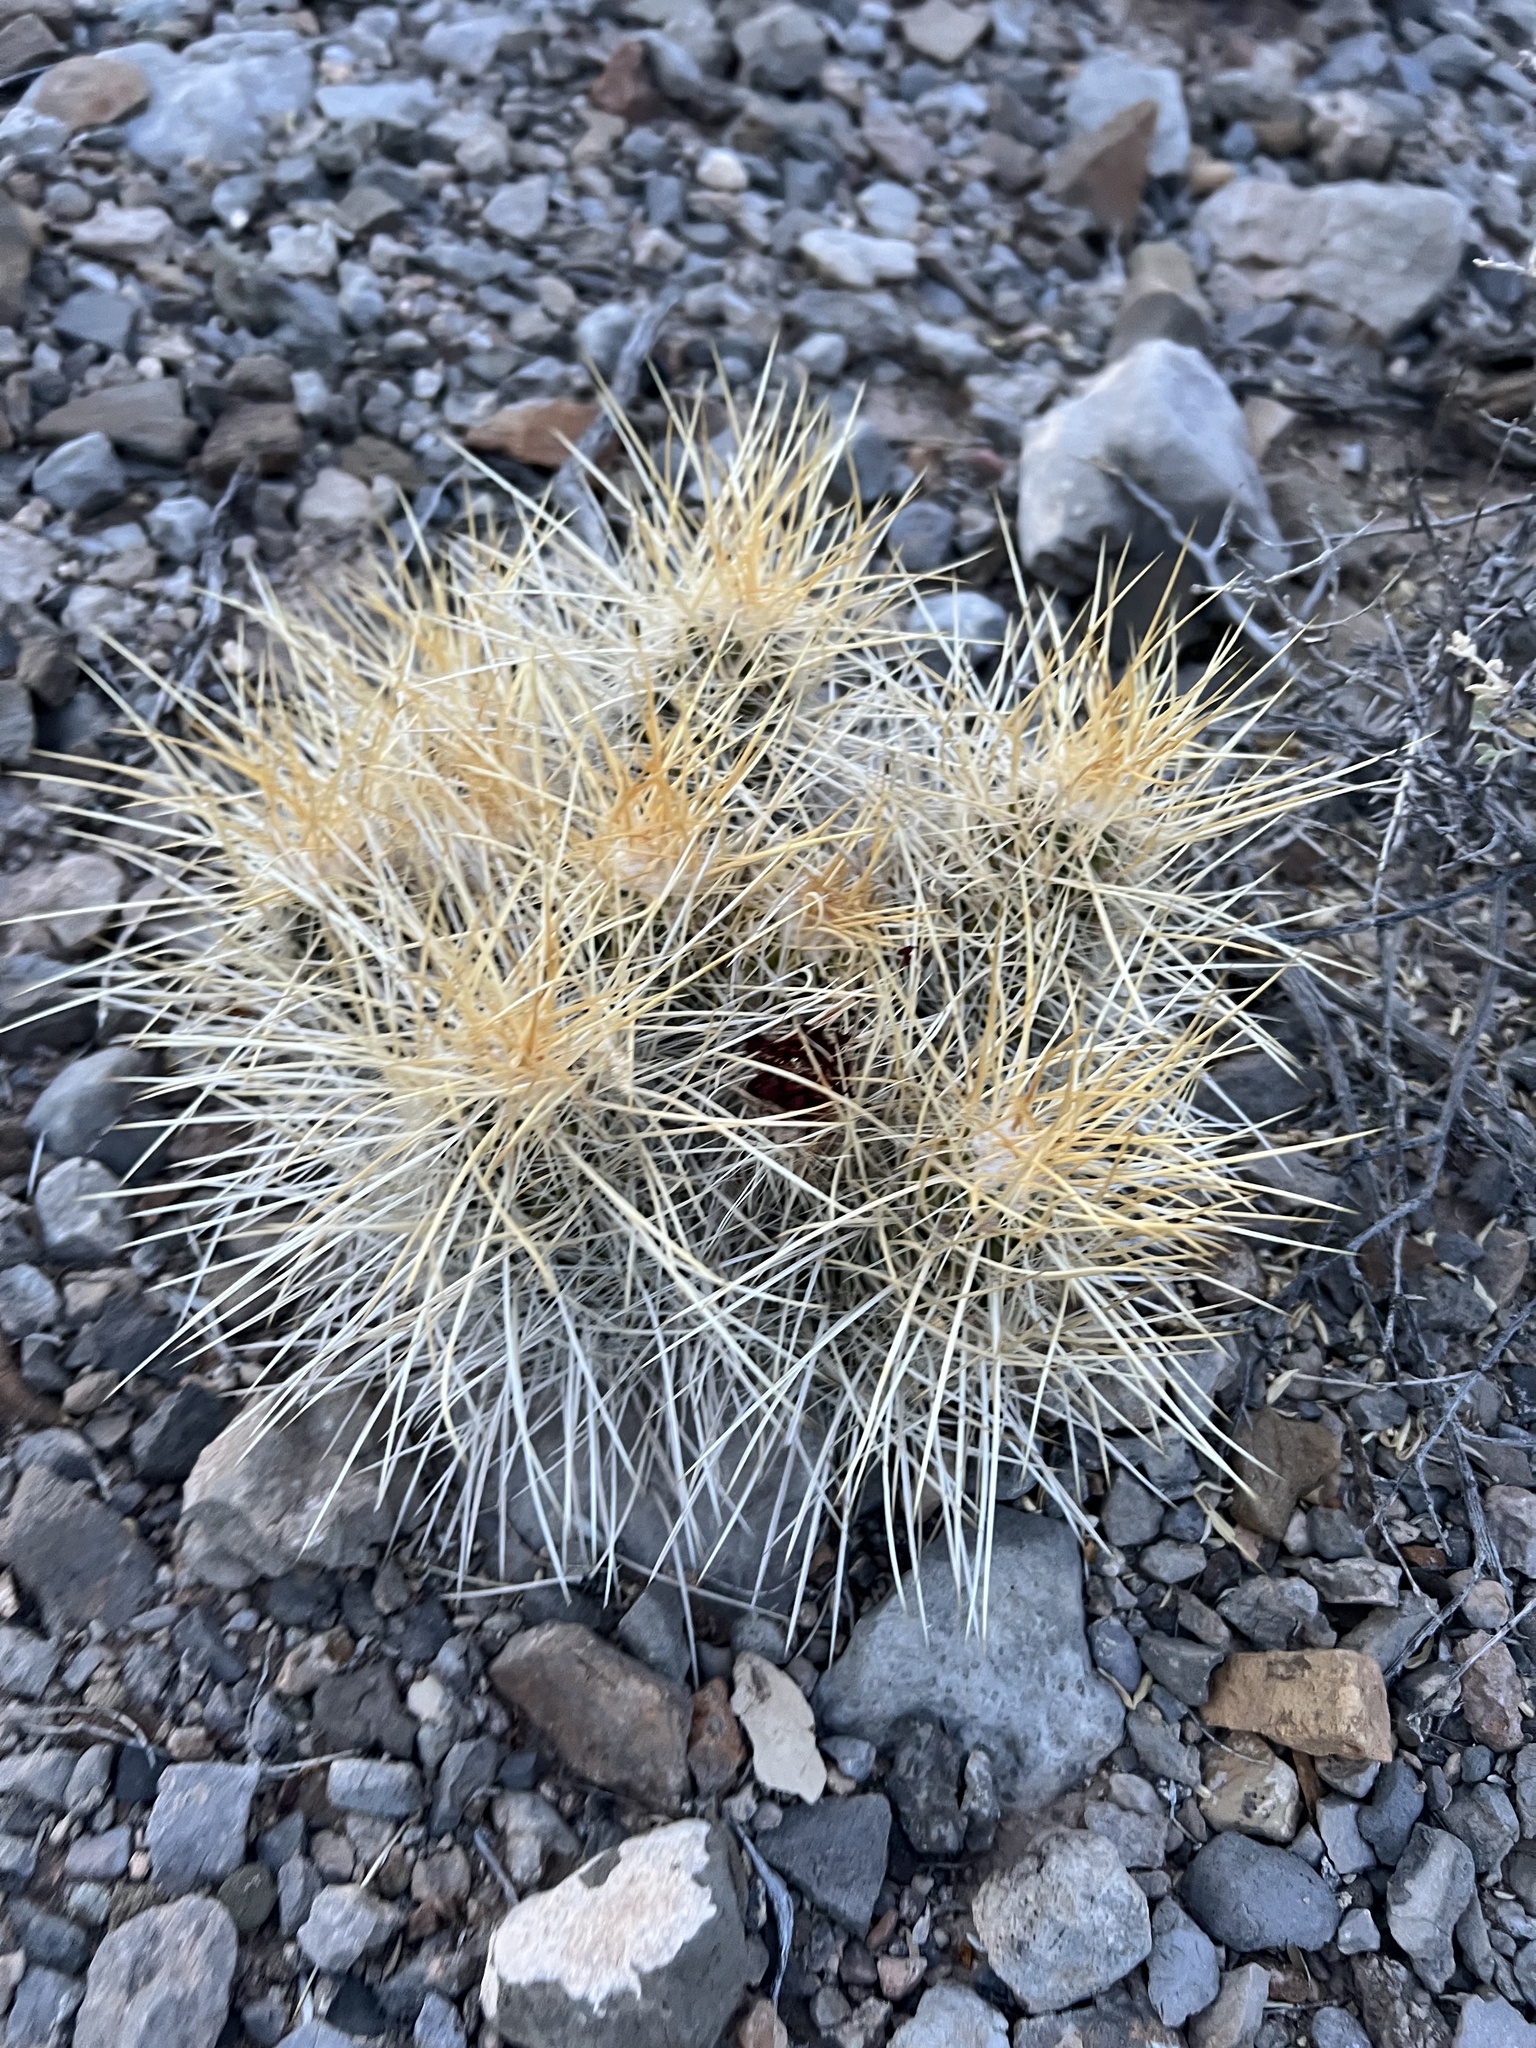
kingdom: Plantae
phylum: Tracheophyta
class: Magnoliopsida
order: Caryophyllales
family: Cactaceae
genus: Echinocereus
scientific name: Echinocereus stramineus
